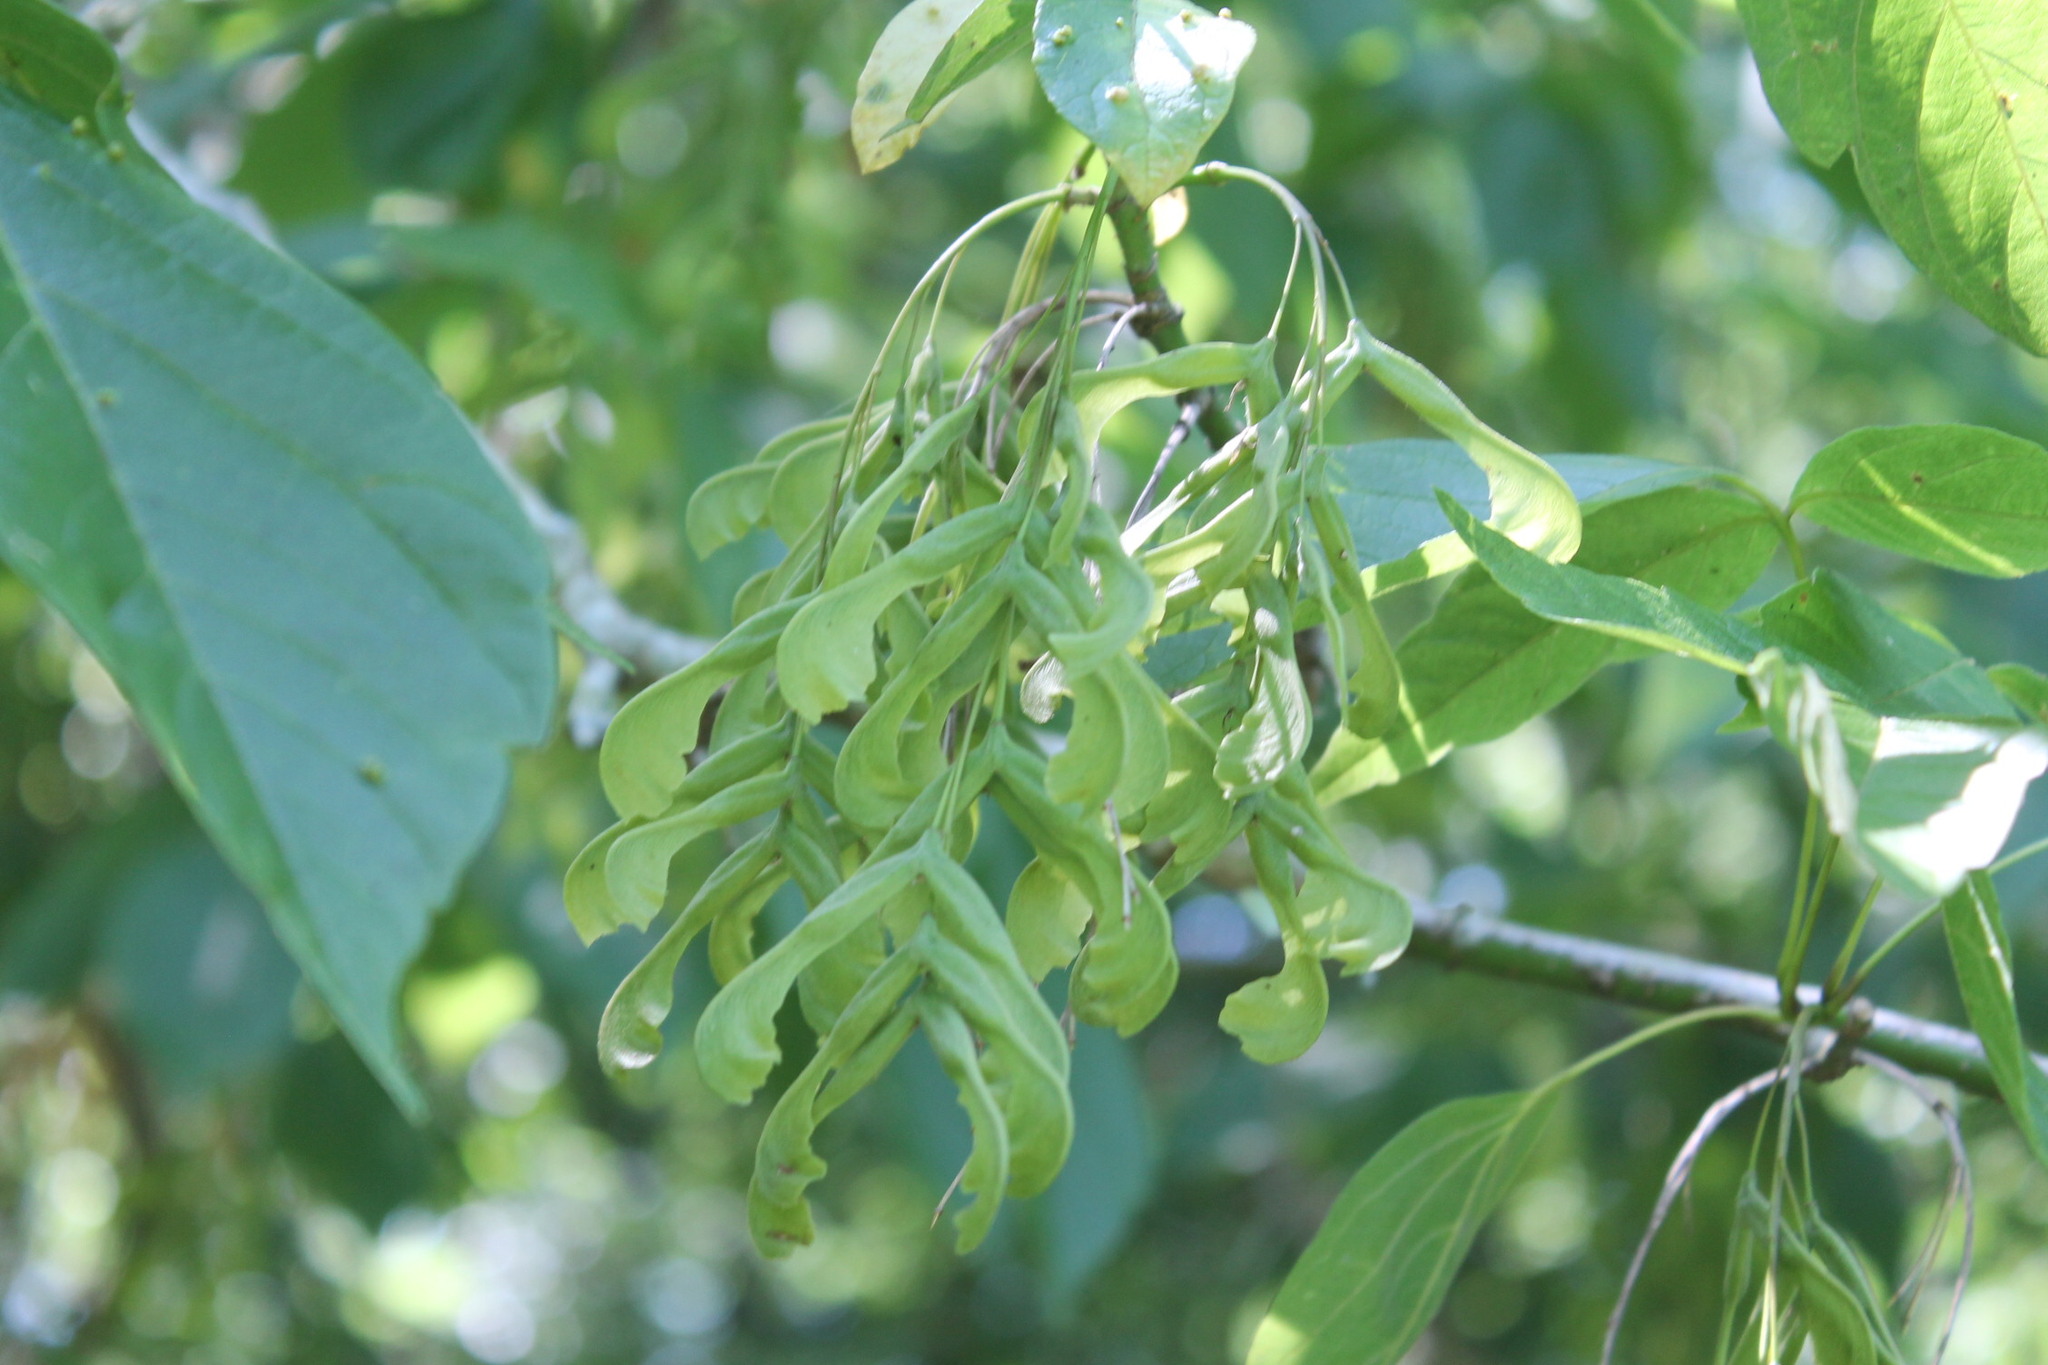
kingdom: Plantae
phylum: Tracheophyta
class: Magnoliopsida
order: Sapindales
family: Sapindaceae
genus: Acer
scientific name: Acer negundo
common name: Ashleaf maple
